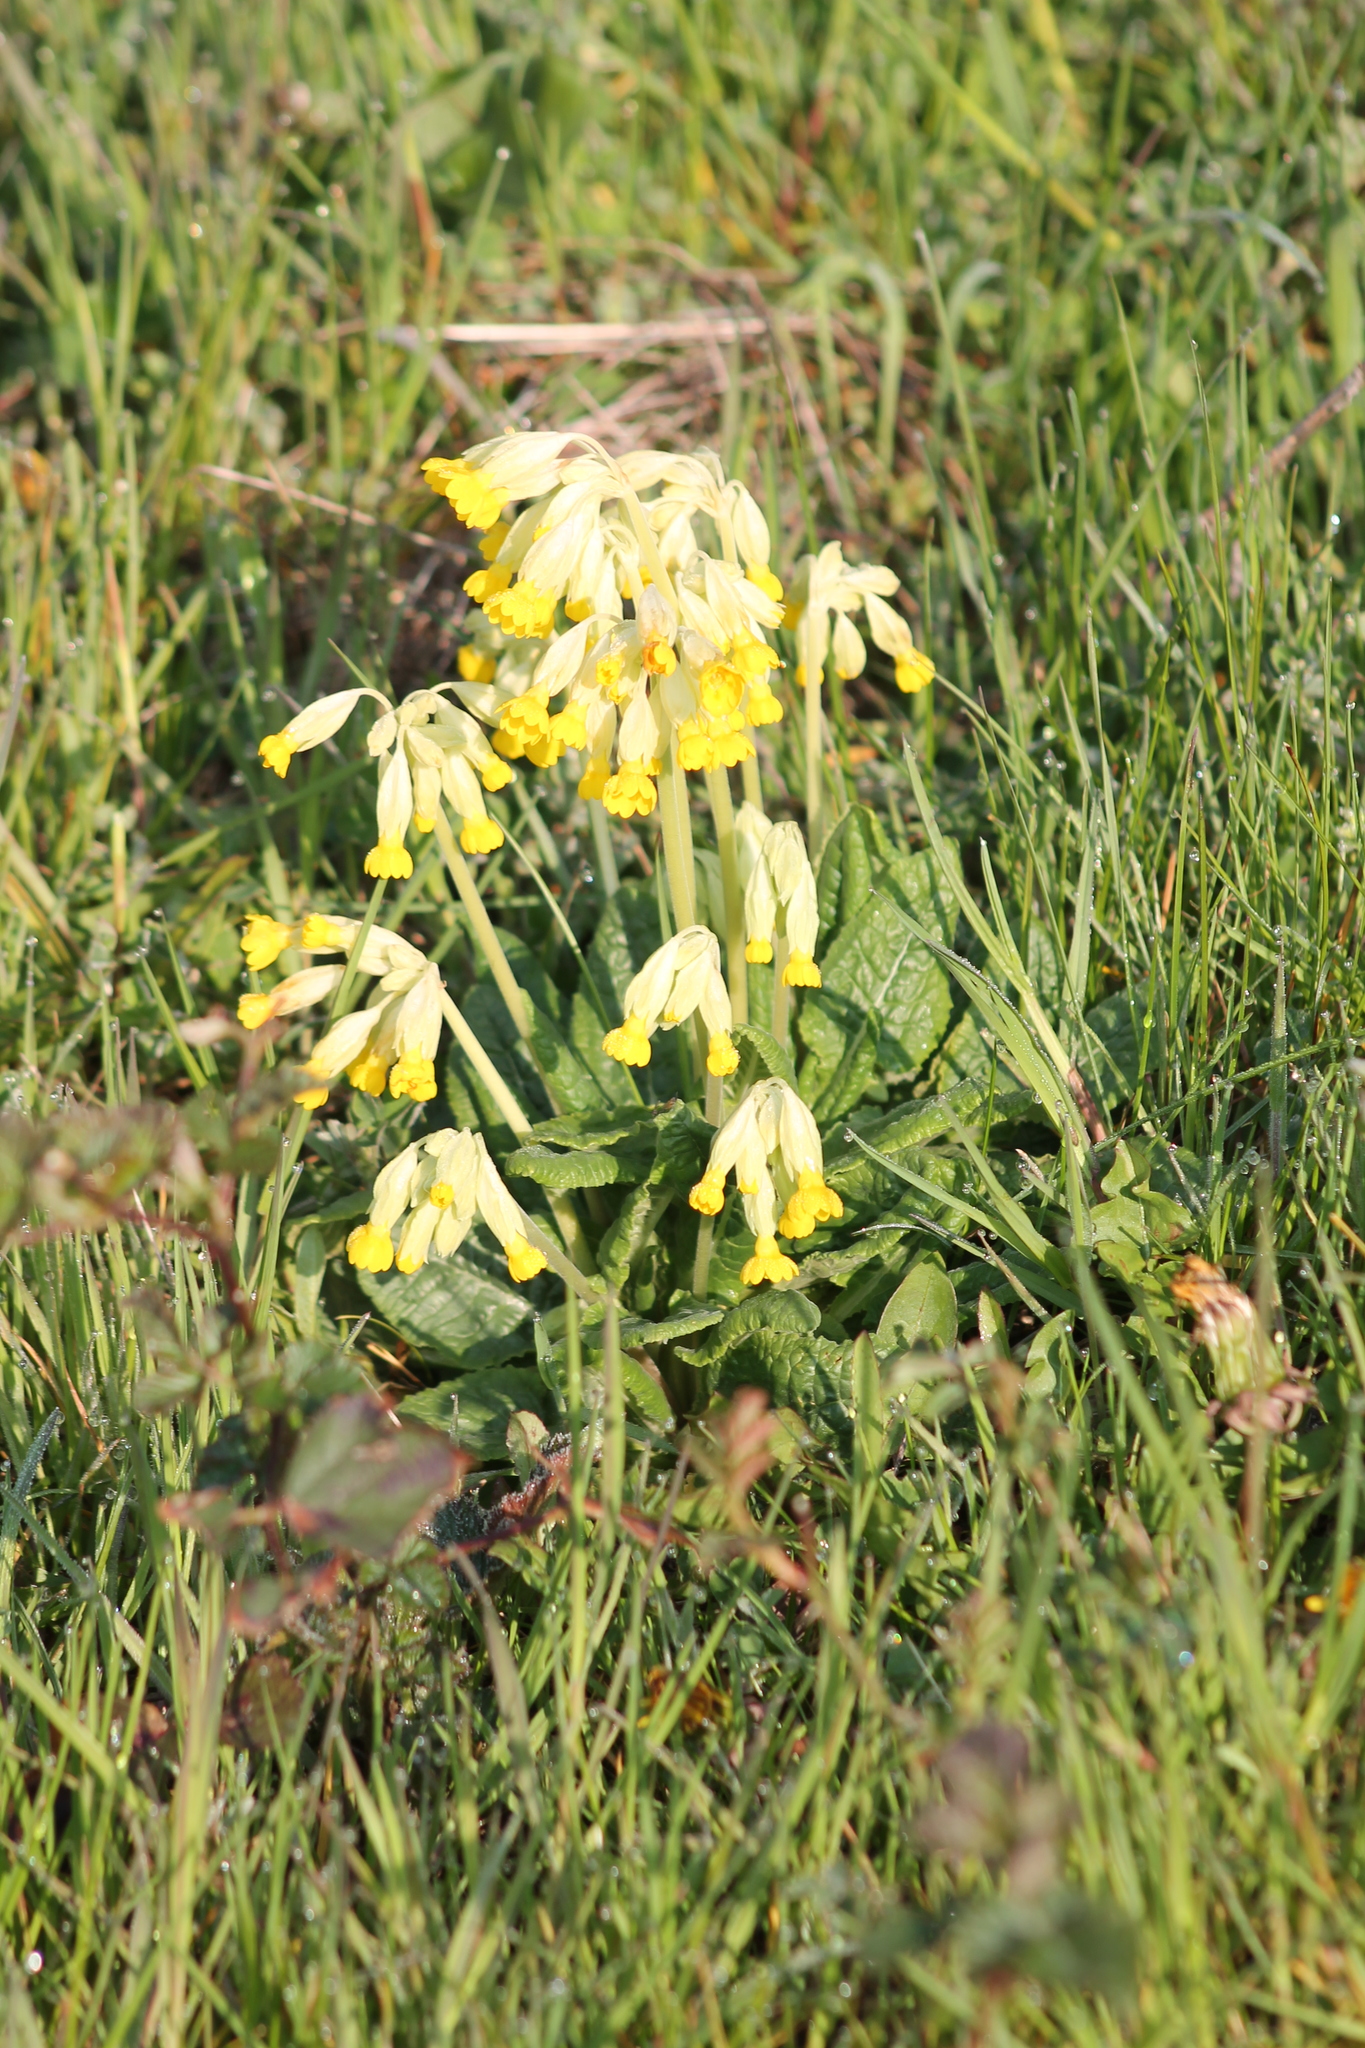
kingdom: Plantae
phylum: Tracheophyta
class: Magnoliopsida
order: Ericales
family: Primulaceae
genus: Primula
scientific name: Primula veris
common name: Cowslip
